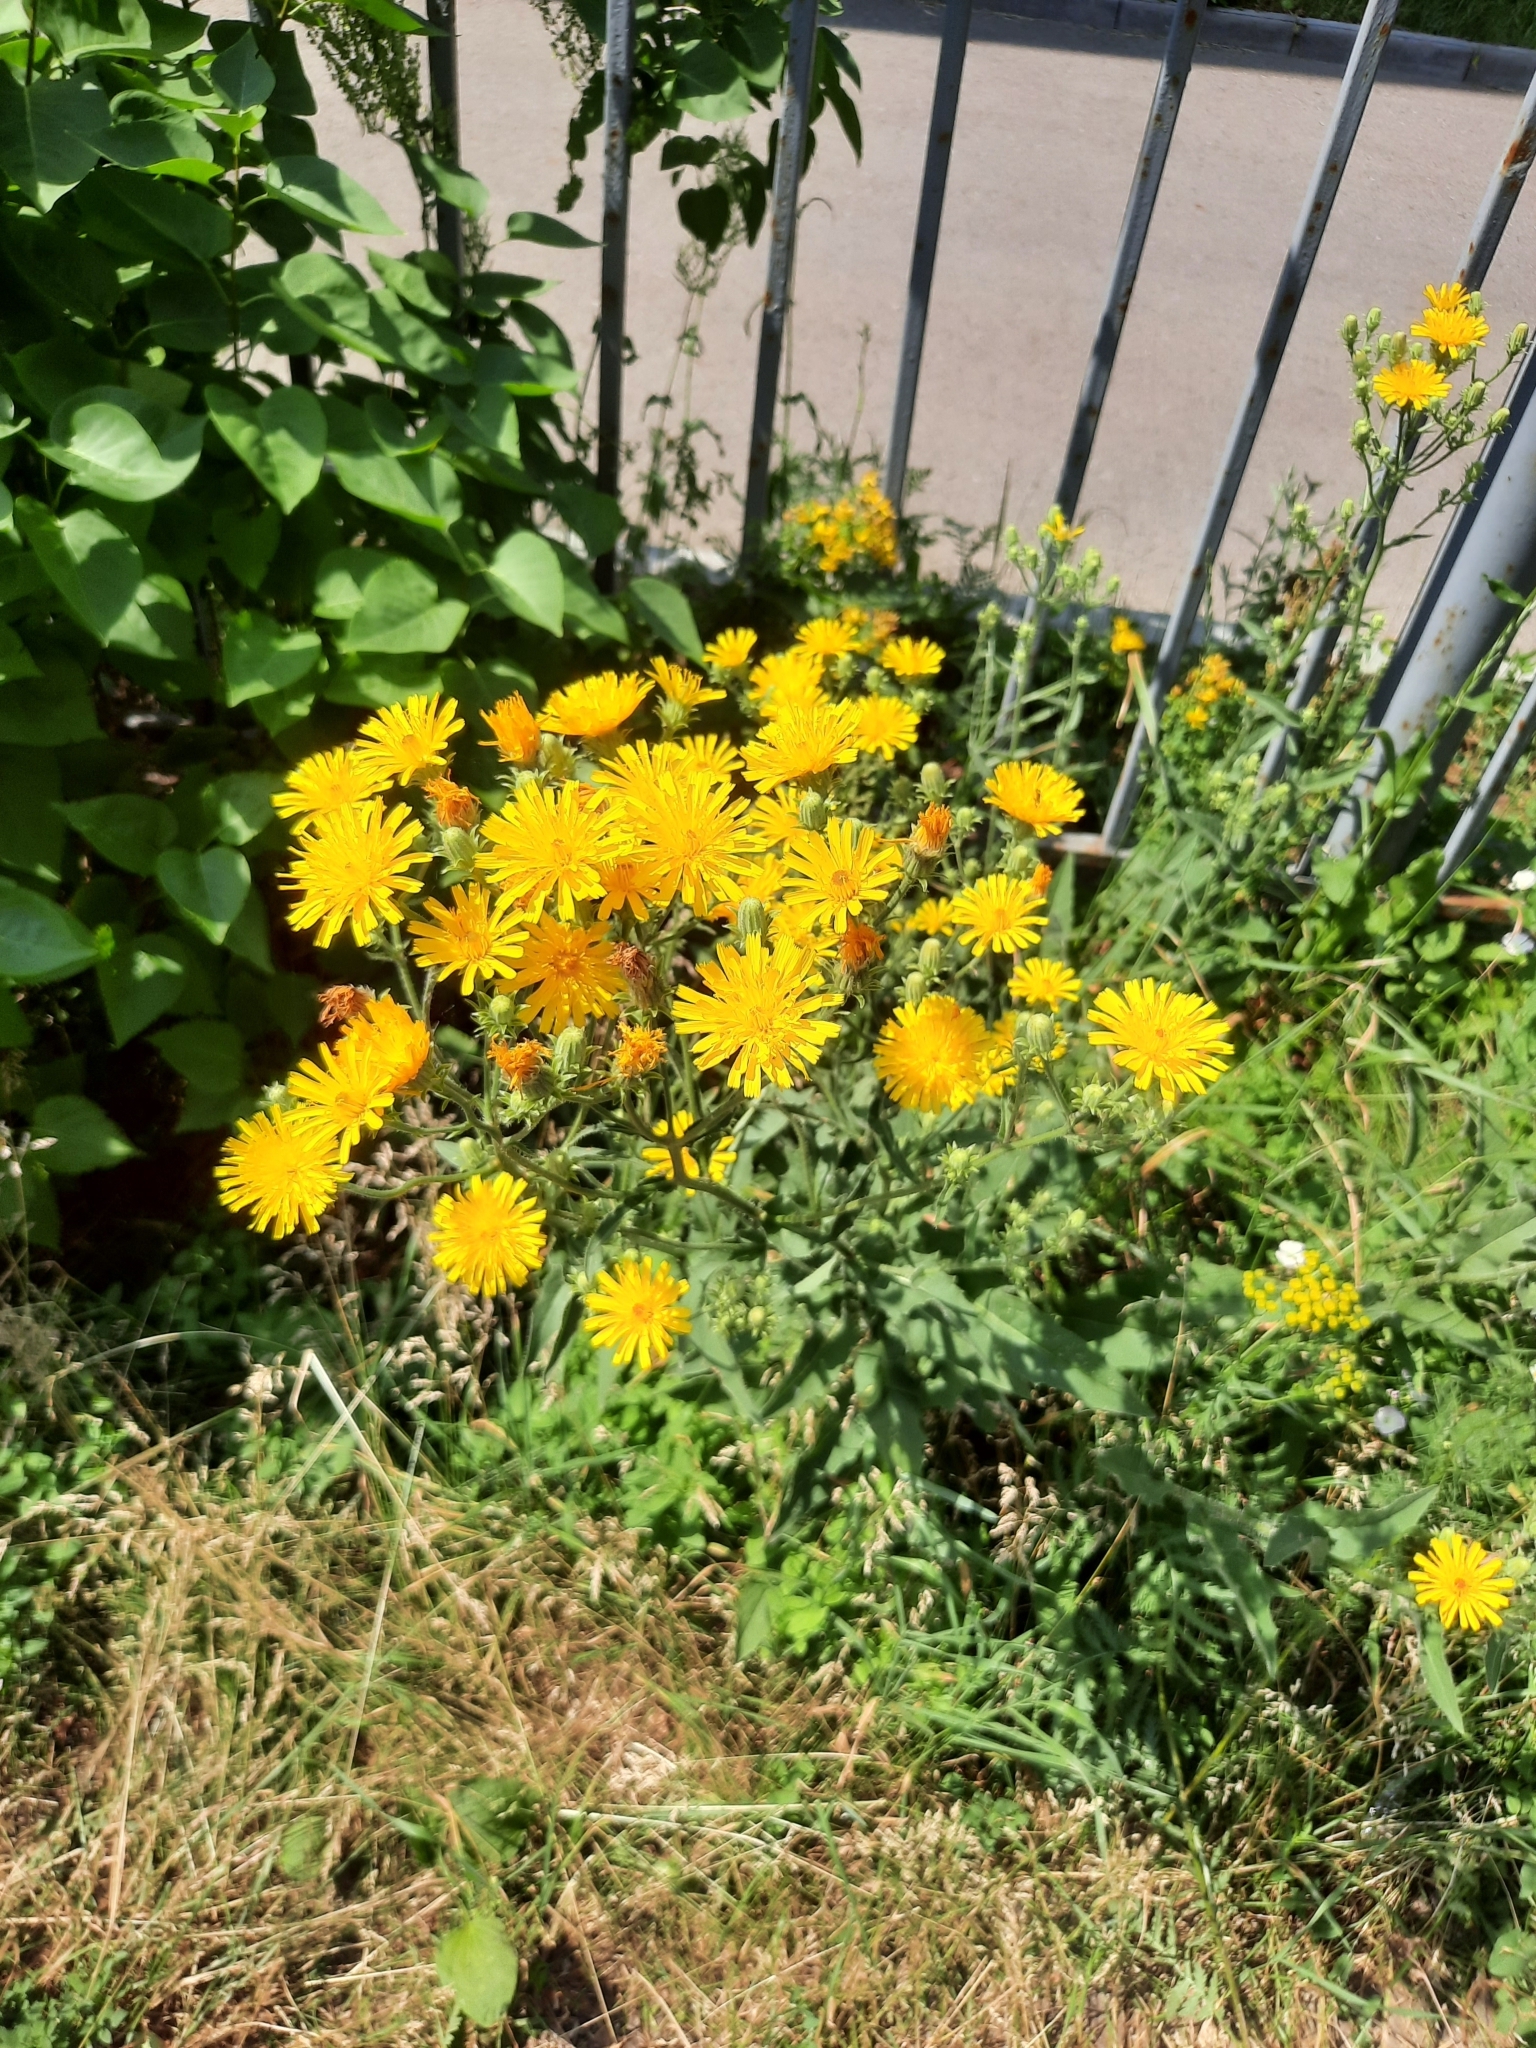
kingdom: Plantae
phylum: Tracheophyta
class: Magnoliopsida
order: Asterales
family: Asteraceae
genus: Picris
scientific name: Picris hieracioides
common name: Hawkweed oxtongue
